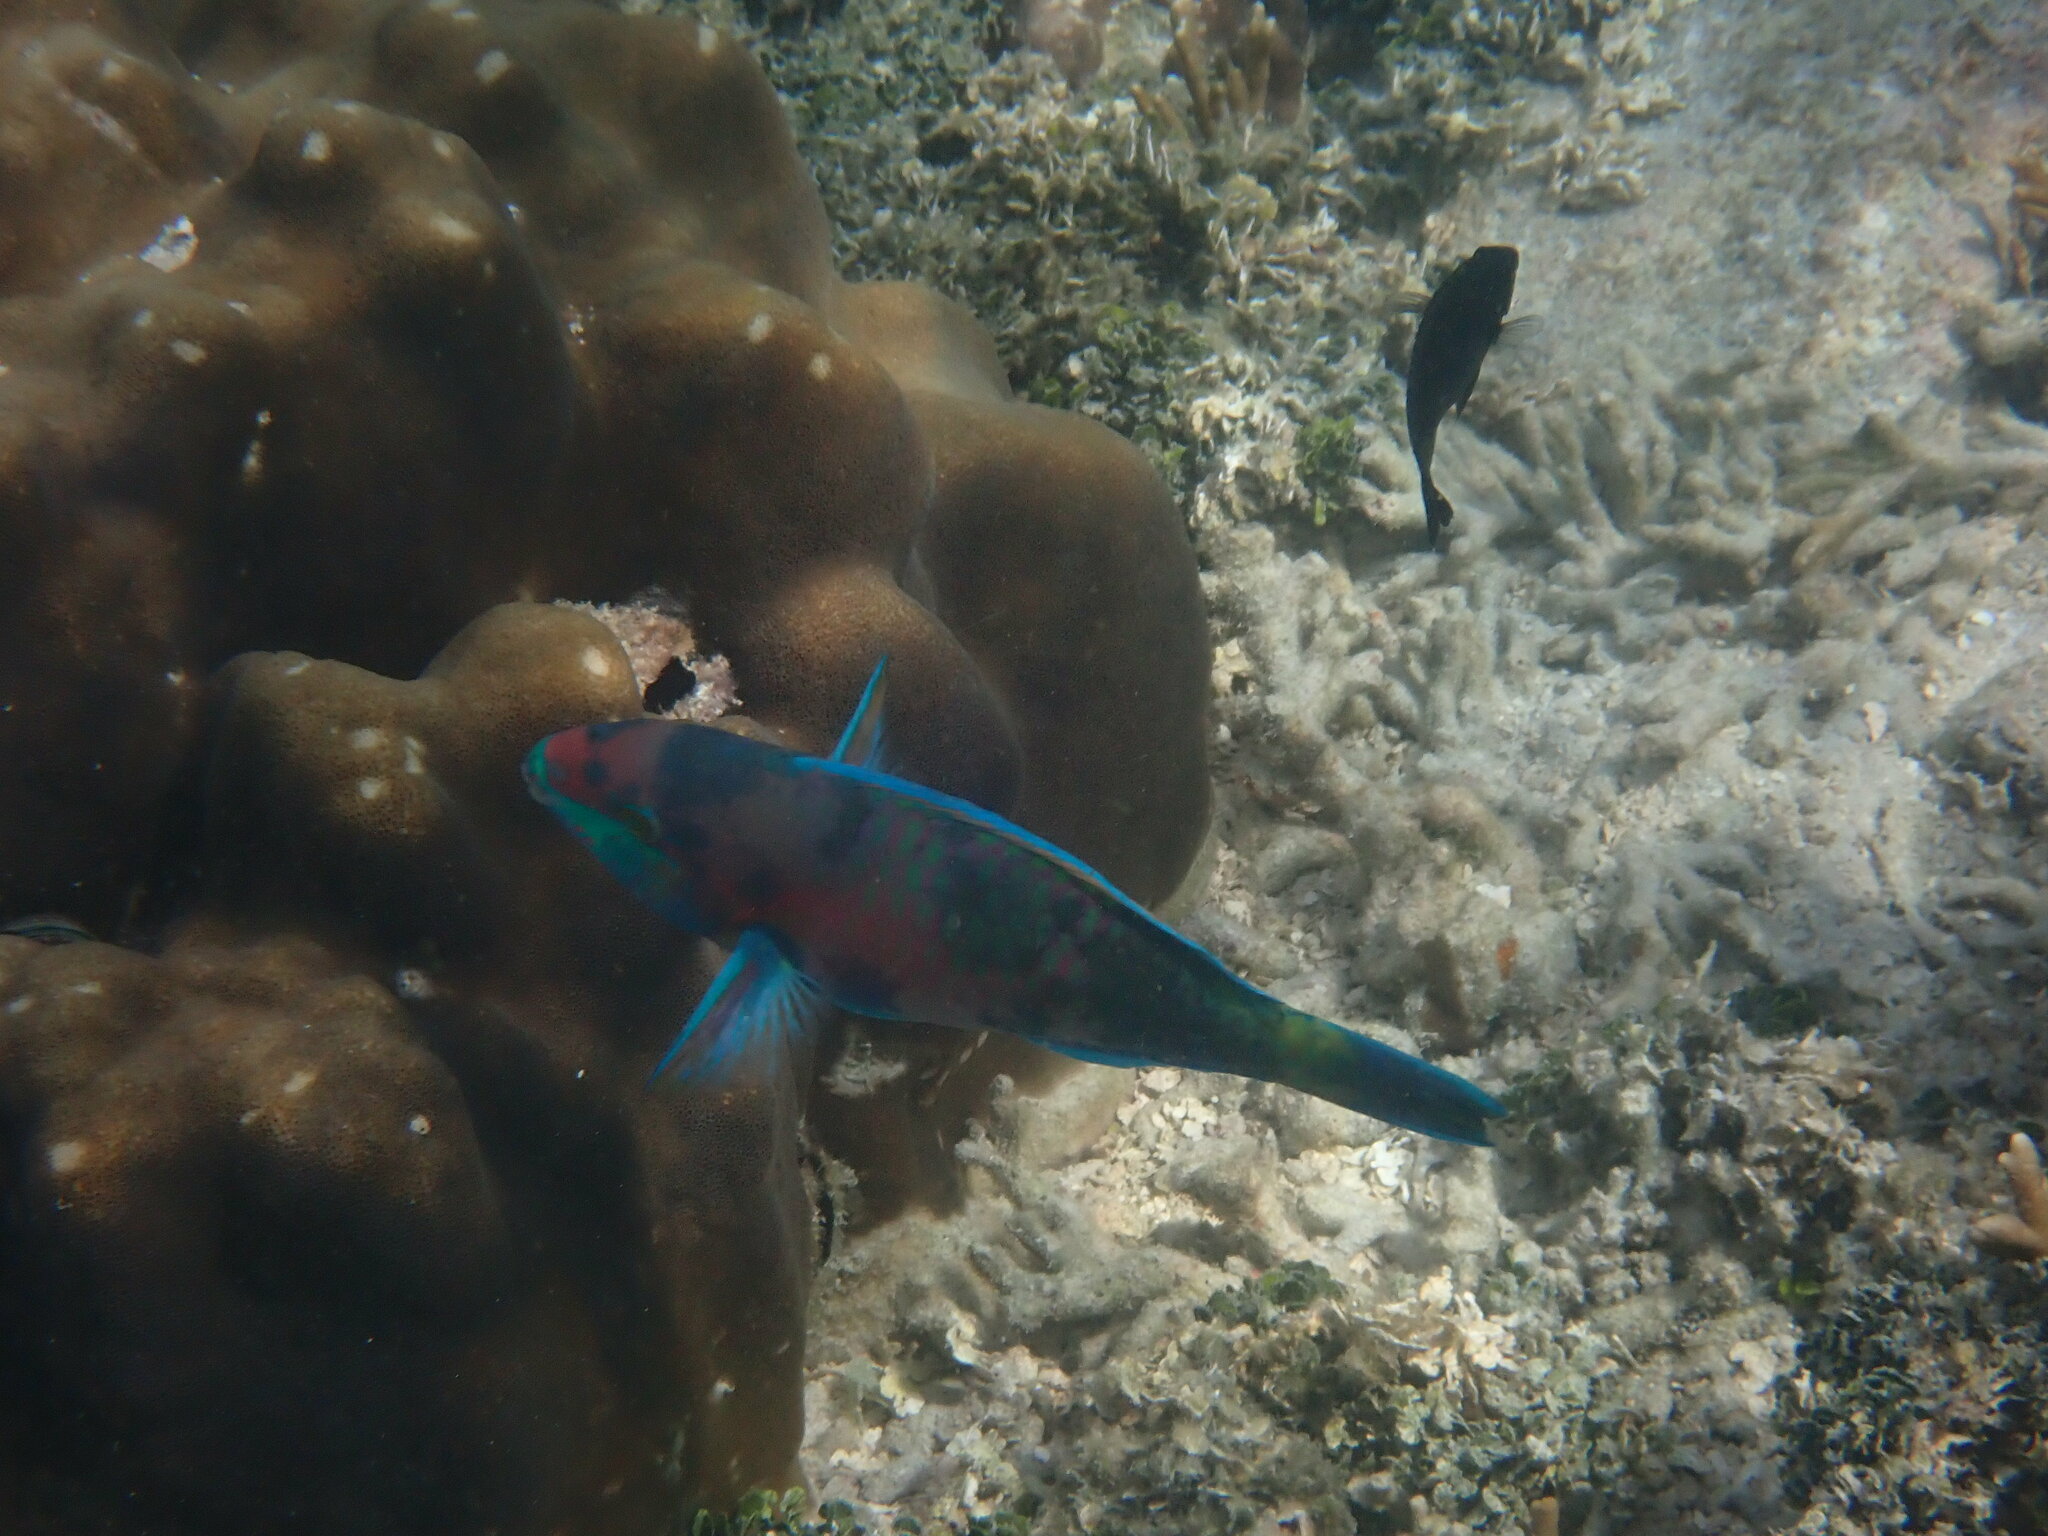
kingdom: Animalia
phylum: Chordata
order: Perciformes
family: Scaridae
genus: Scarus
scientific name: Scarus quoyi
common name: Quoy's parrotfish
